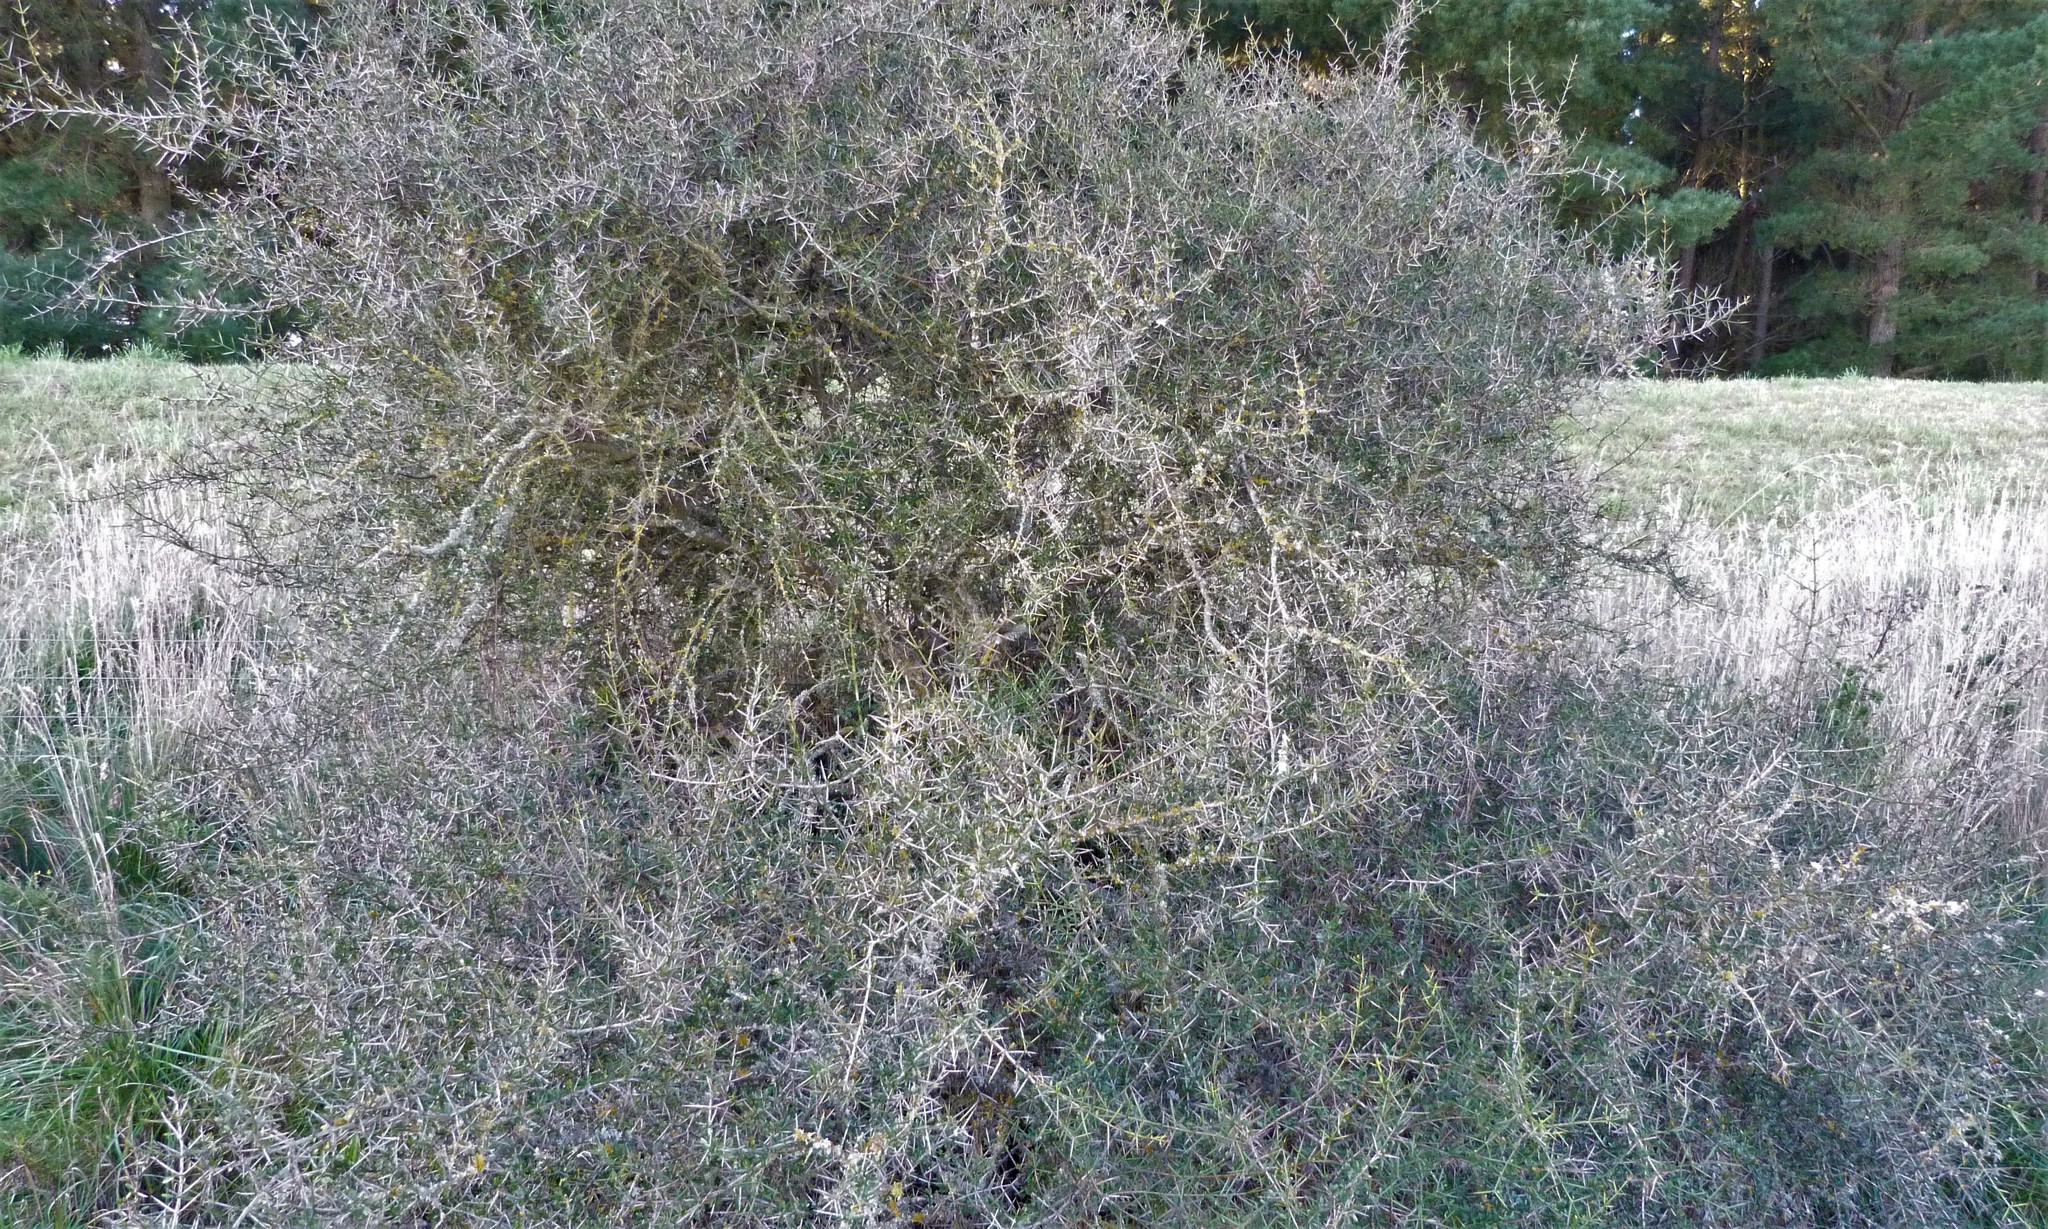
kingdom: Plantae
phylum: Tracheophyta
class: Magnoliopsida
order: Rosales
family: Rhamnaceae
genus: Discaria
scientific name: Discaria toumatou
